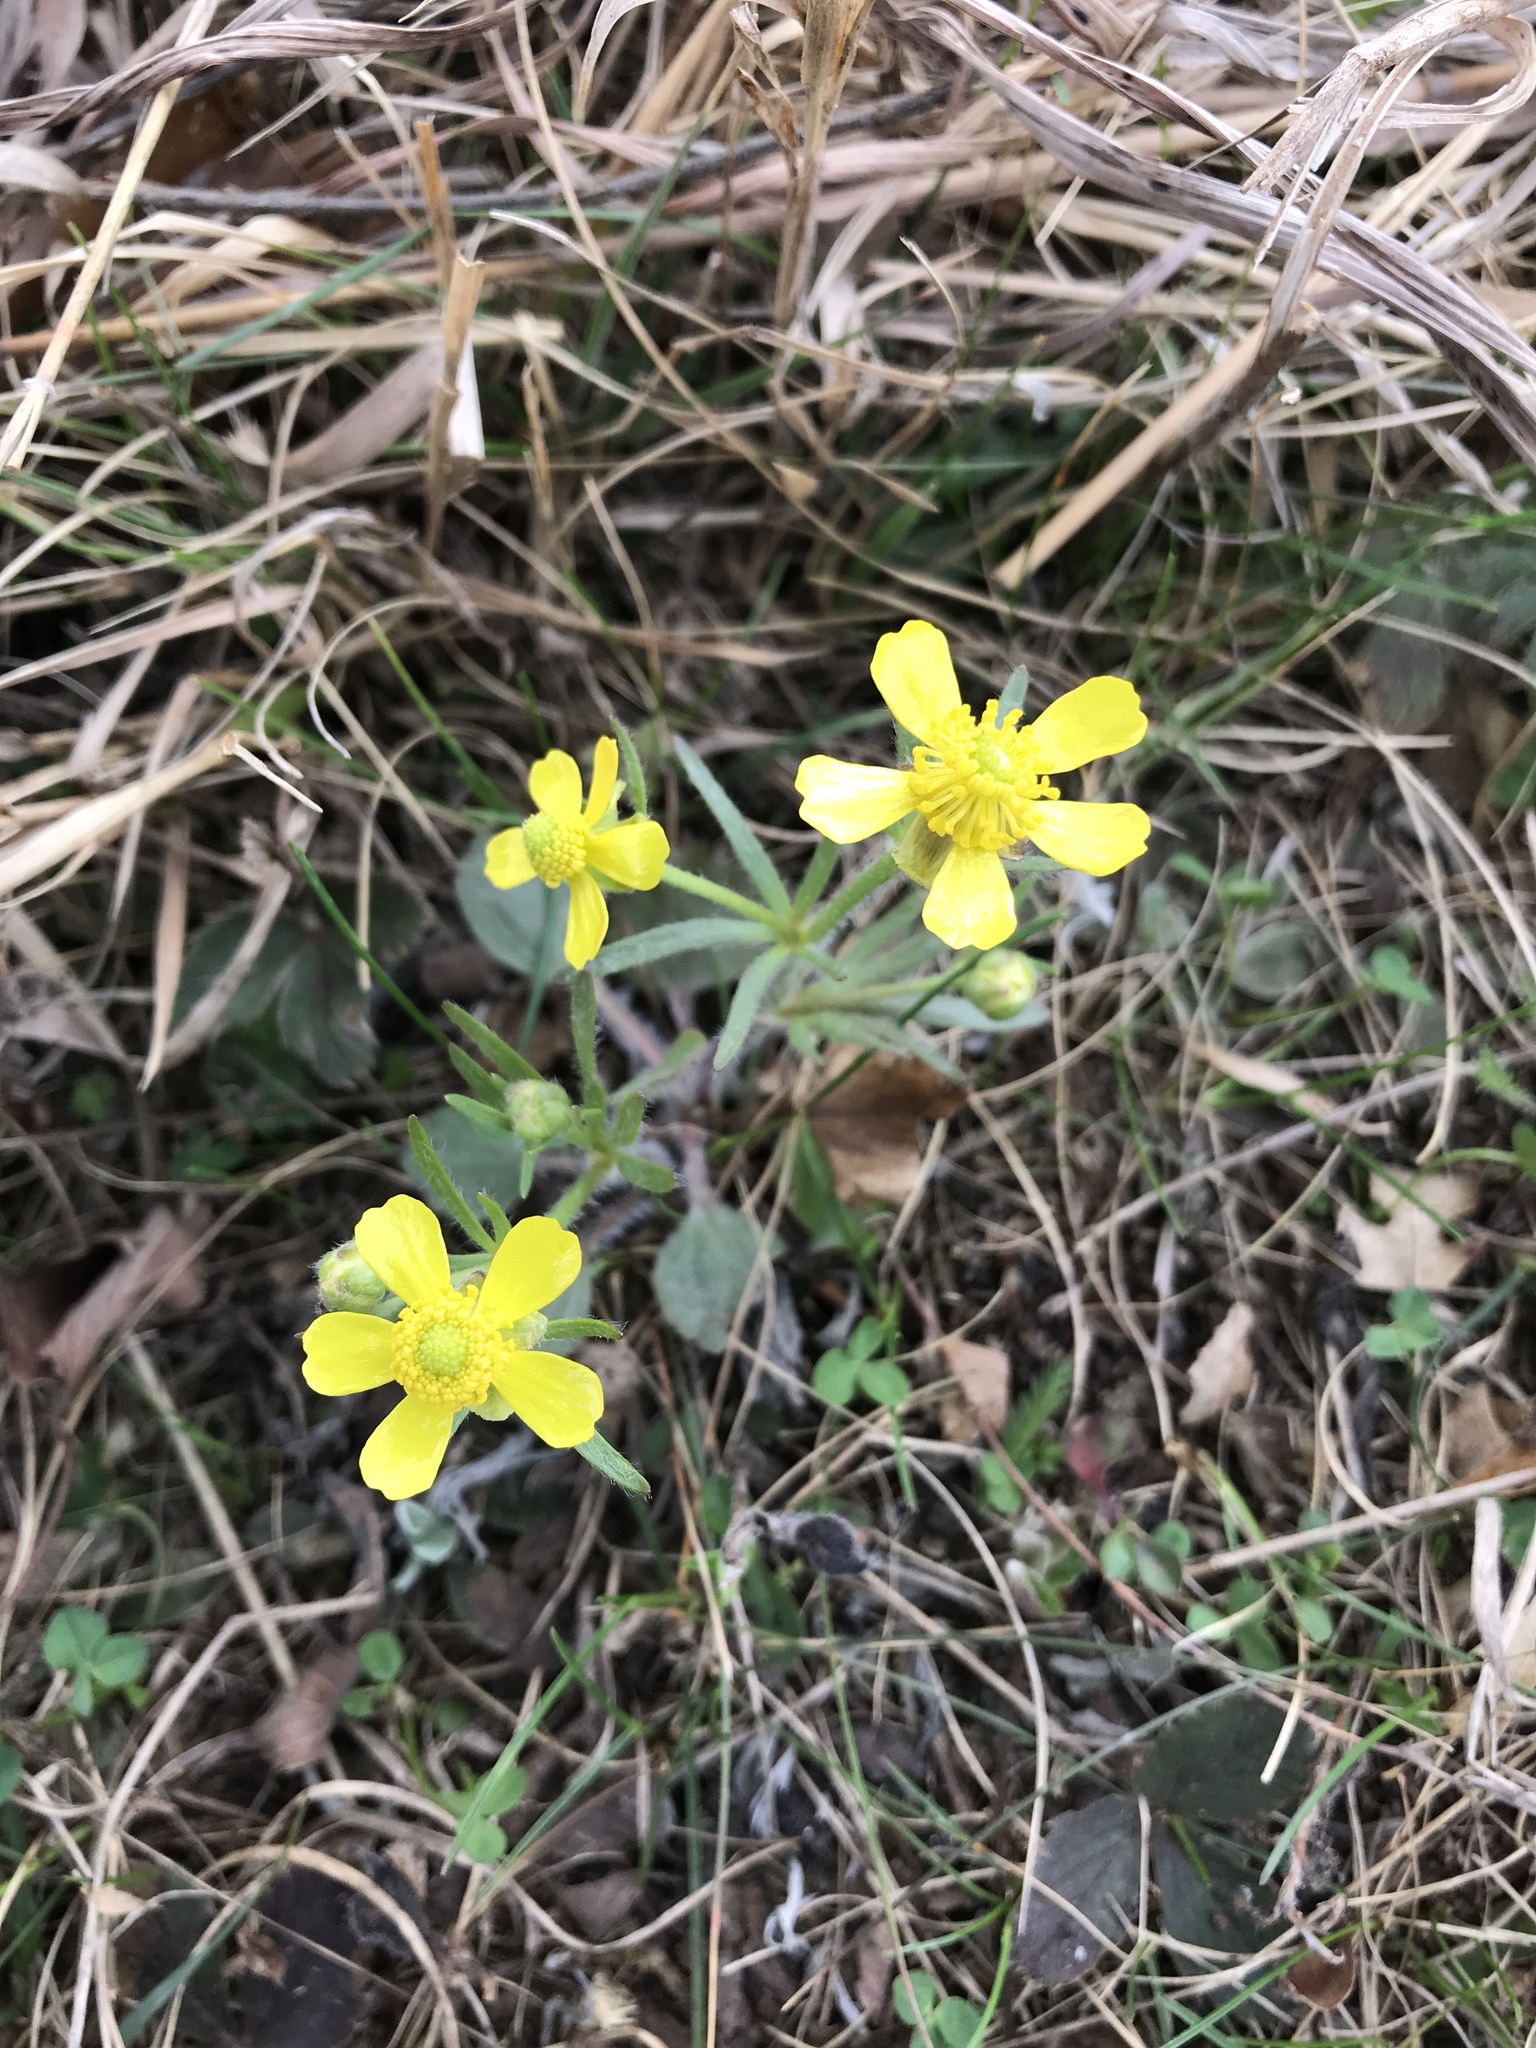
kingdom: Plantae
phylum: Tracheophyta
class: Magnoliopsida
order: Ranunculales
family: Ranunculaceae
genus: Ranunculus
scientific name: Ranunculus rhomboideus
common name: Prairie buttercup
